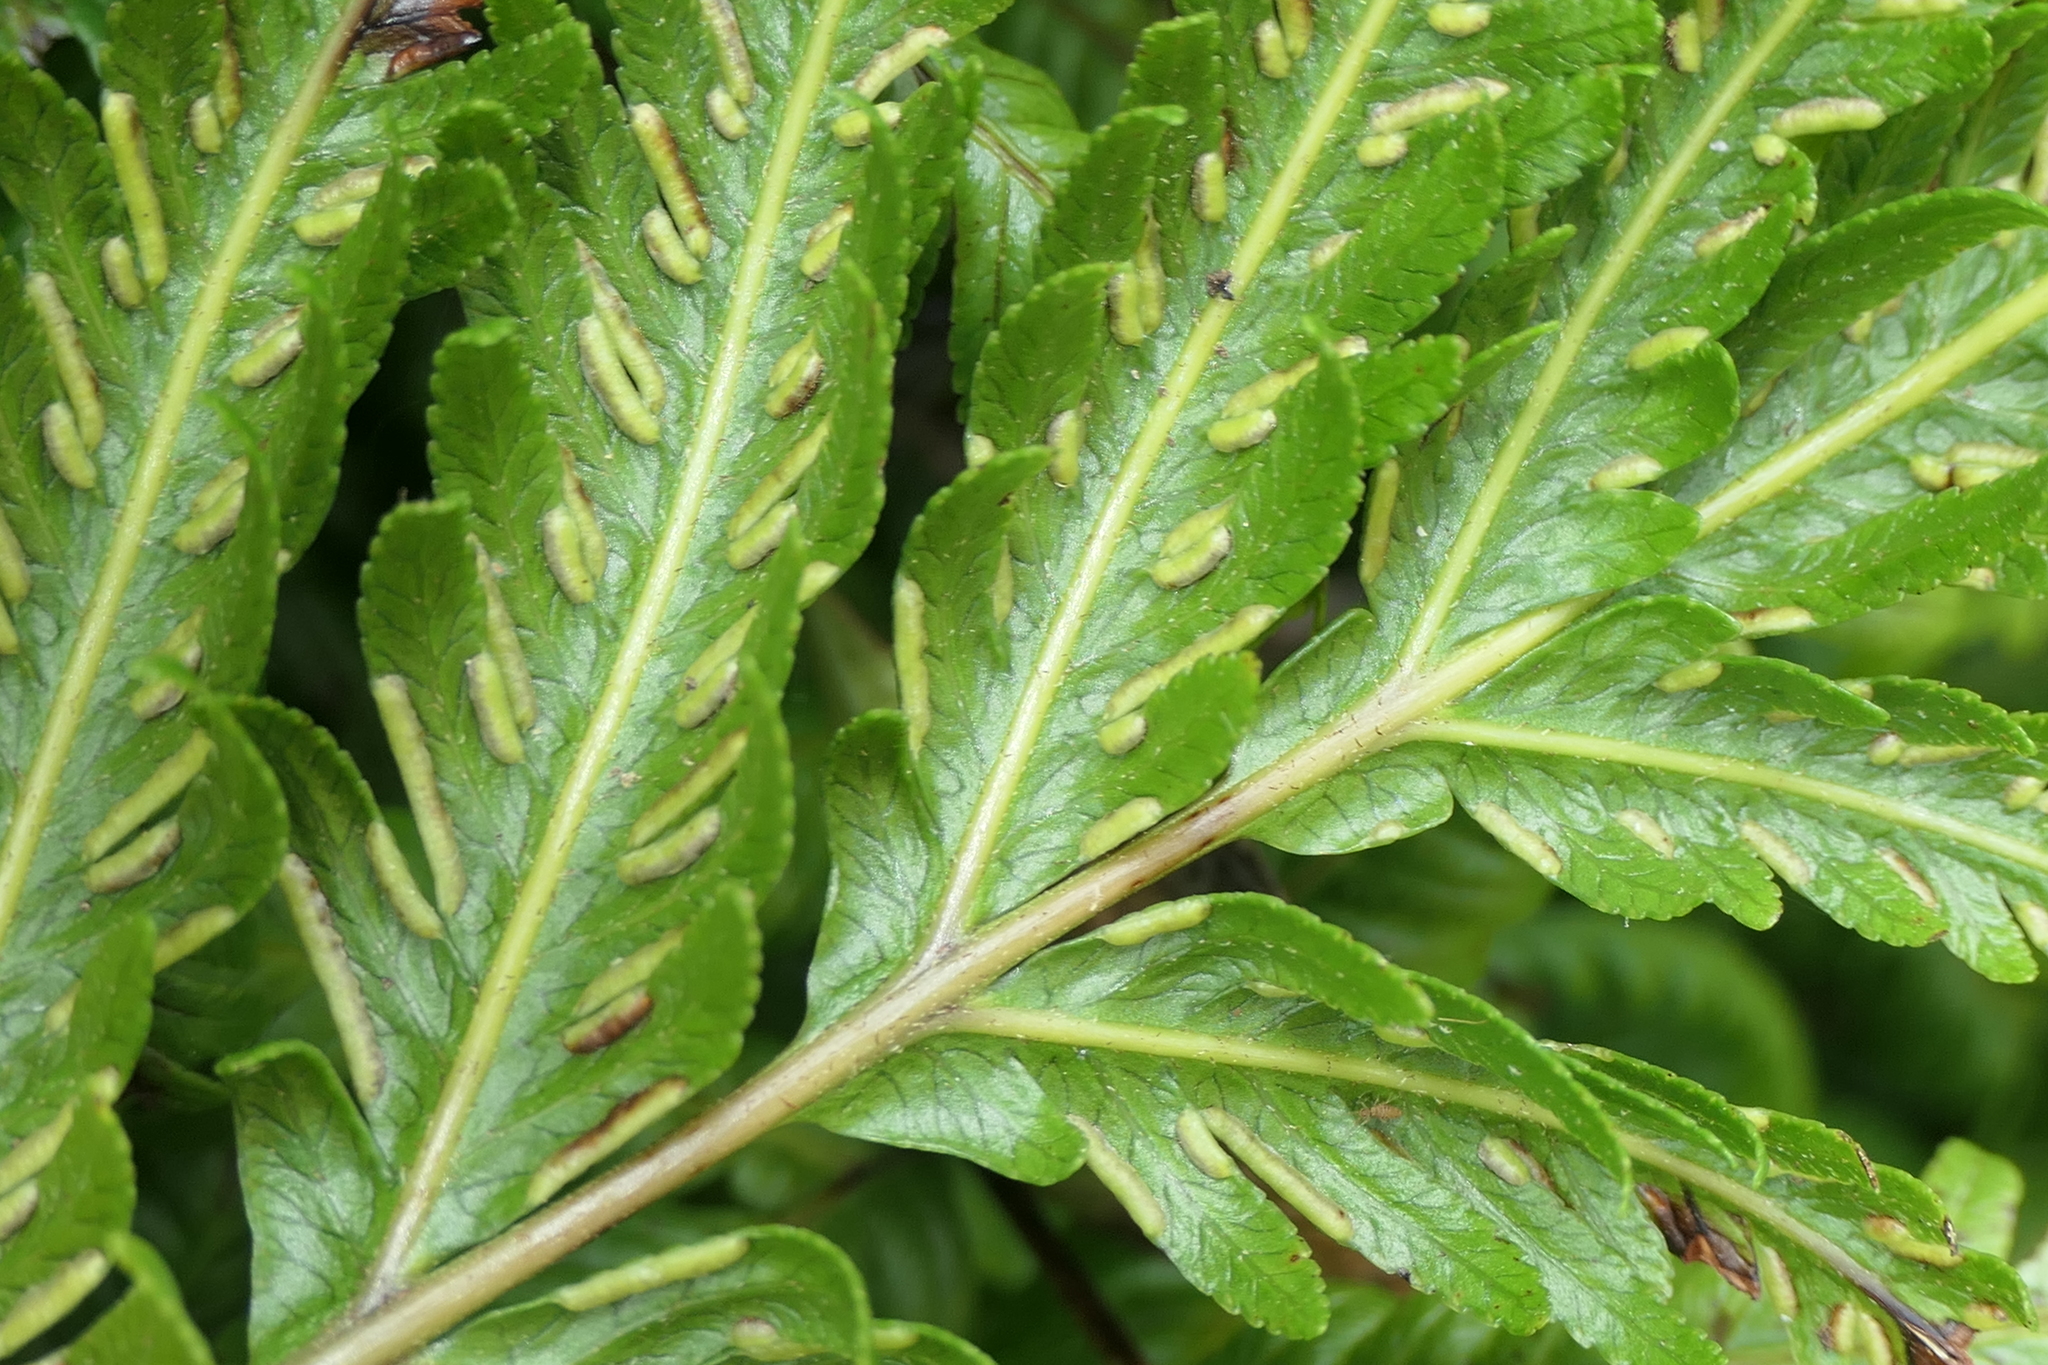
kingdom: Plantae
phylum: Tracheophyta
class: Polypodiopsida
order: Polypodiales
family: Pteridaceae
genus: Pteris
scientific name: Pteris incompleta
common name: Laurisilva brake
